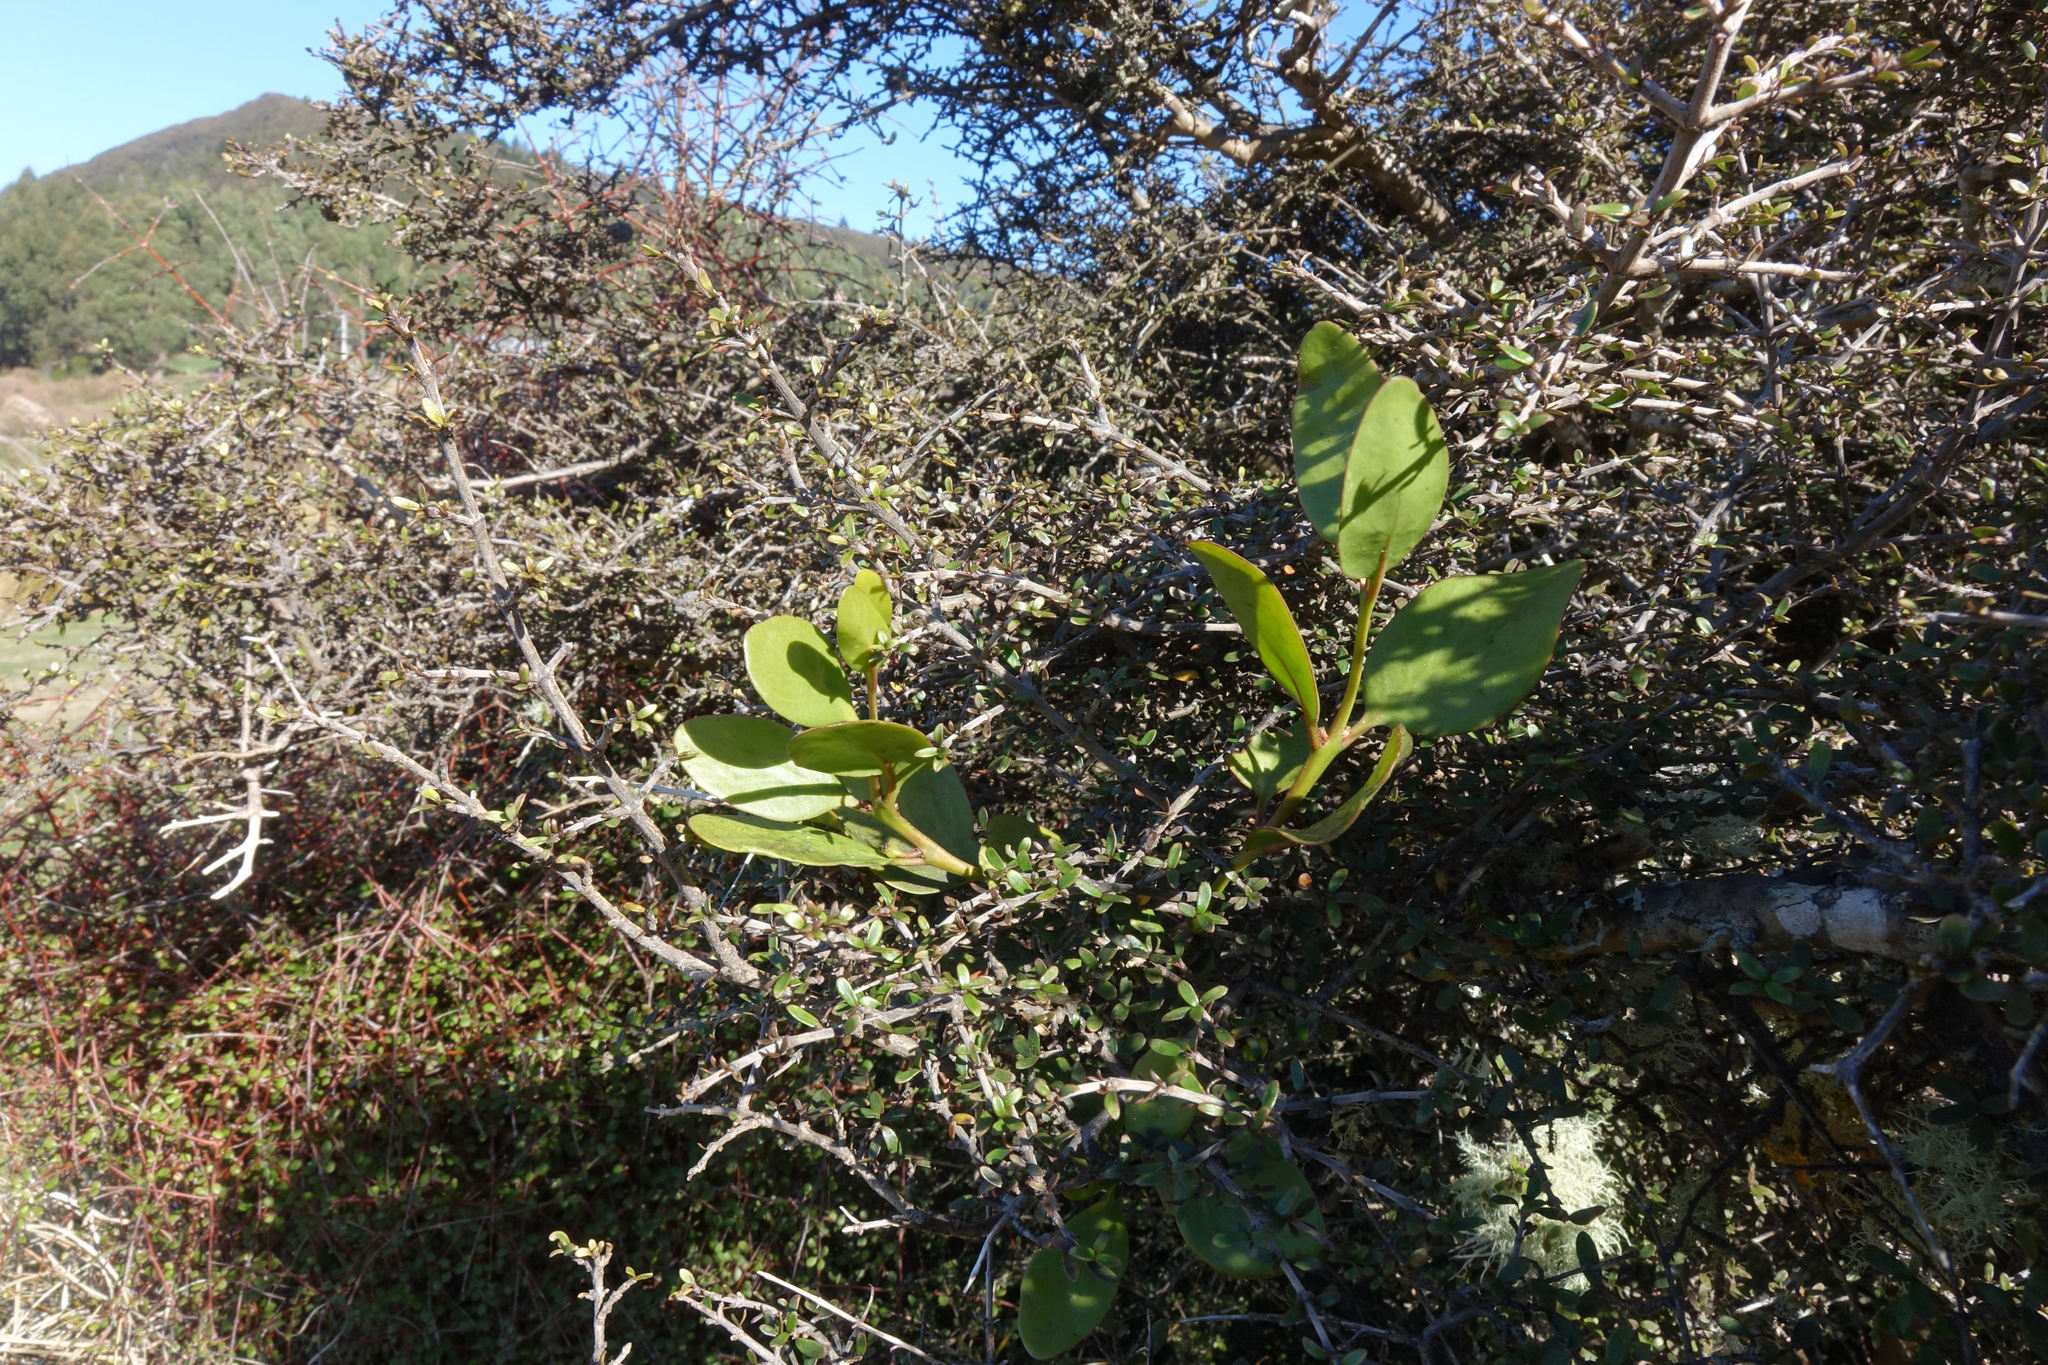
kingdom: Plantae
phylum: Tracheophyta
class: Magnoliopsida
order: Santalales
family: Loranthaceae
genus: Ileostylus
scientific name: Ileostylus micranthus
